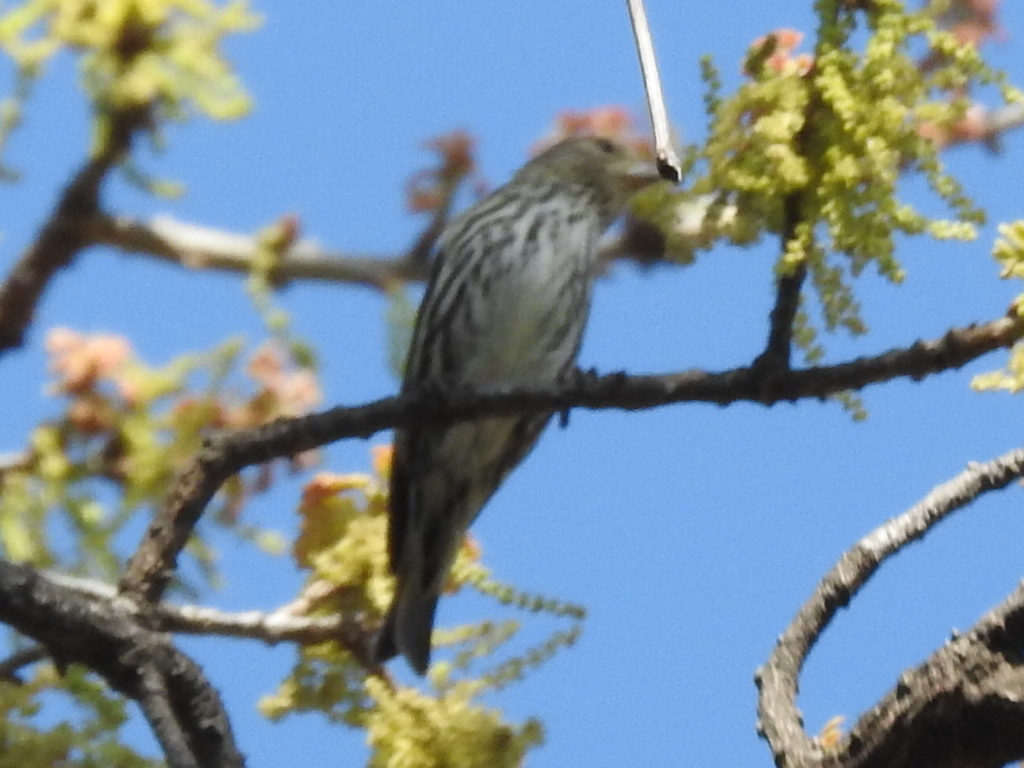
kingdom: Animalia
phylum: Chordata
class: Aves
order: Passeriformes
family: Fringillidae
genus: Spinus
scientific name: Spinus pinus
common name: Pine siskin
